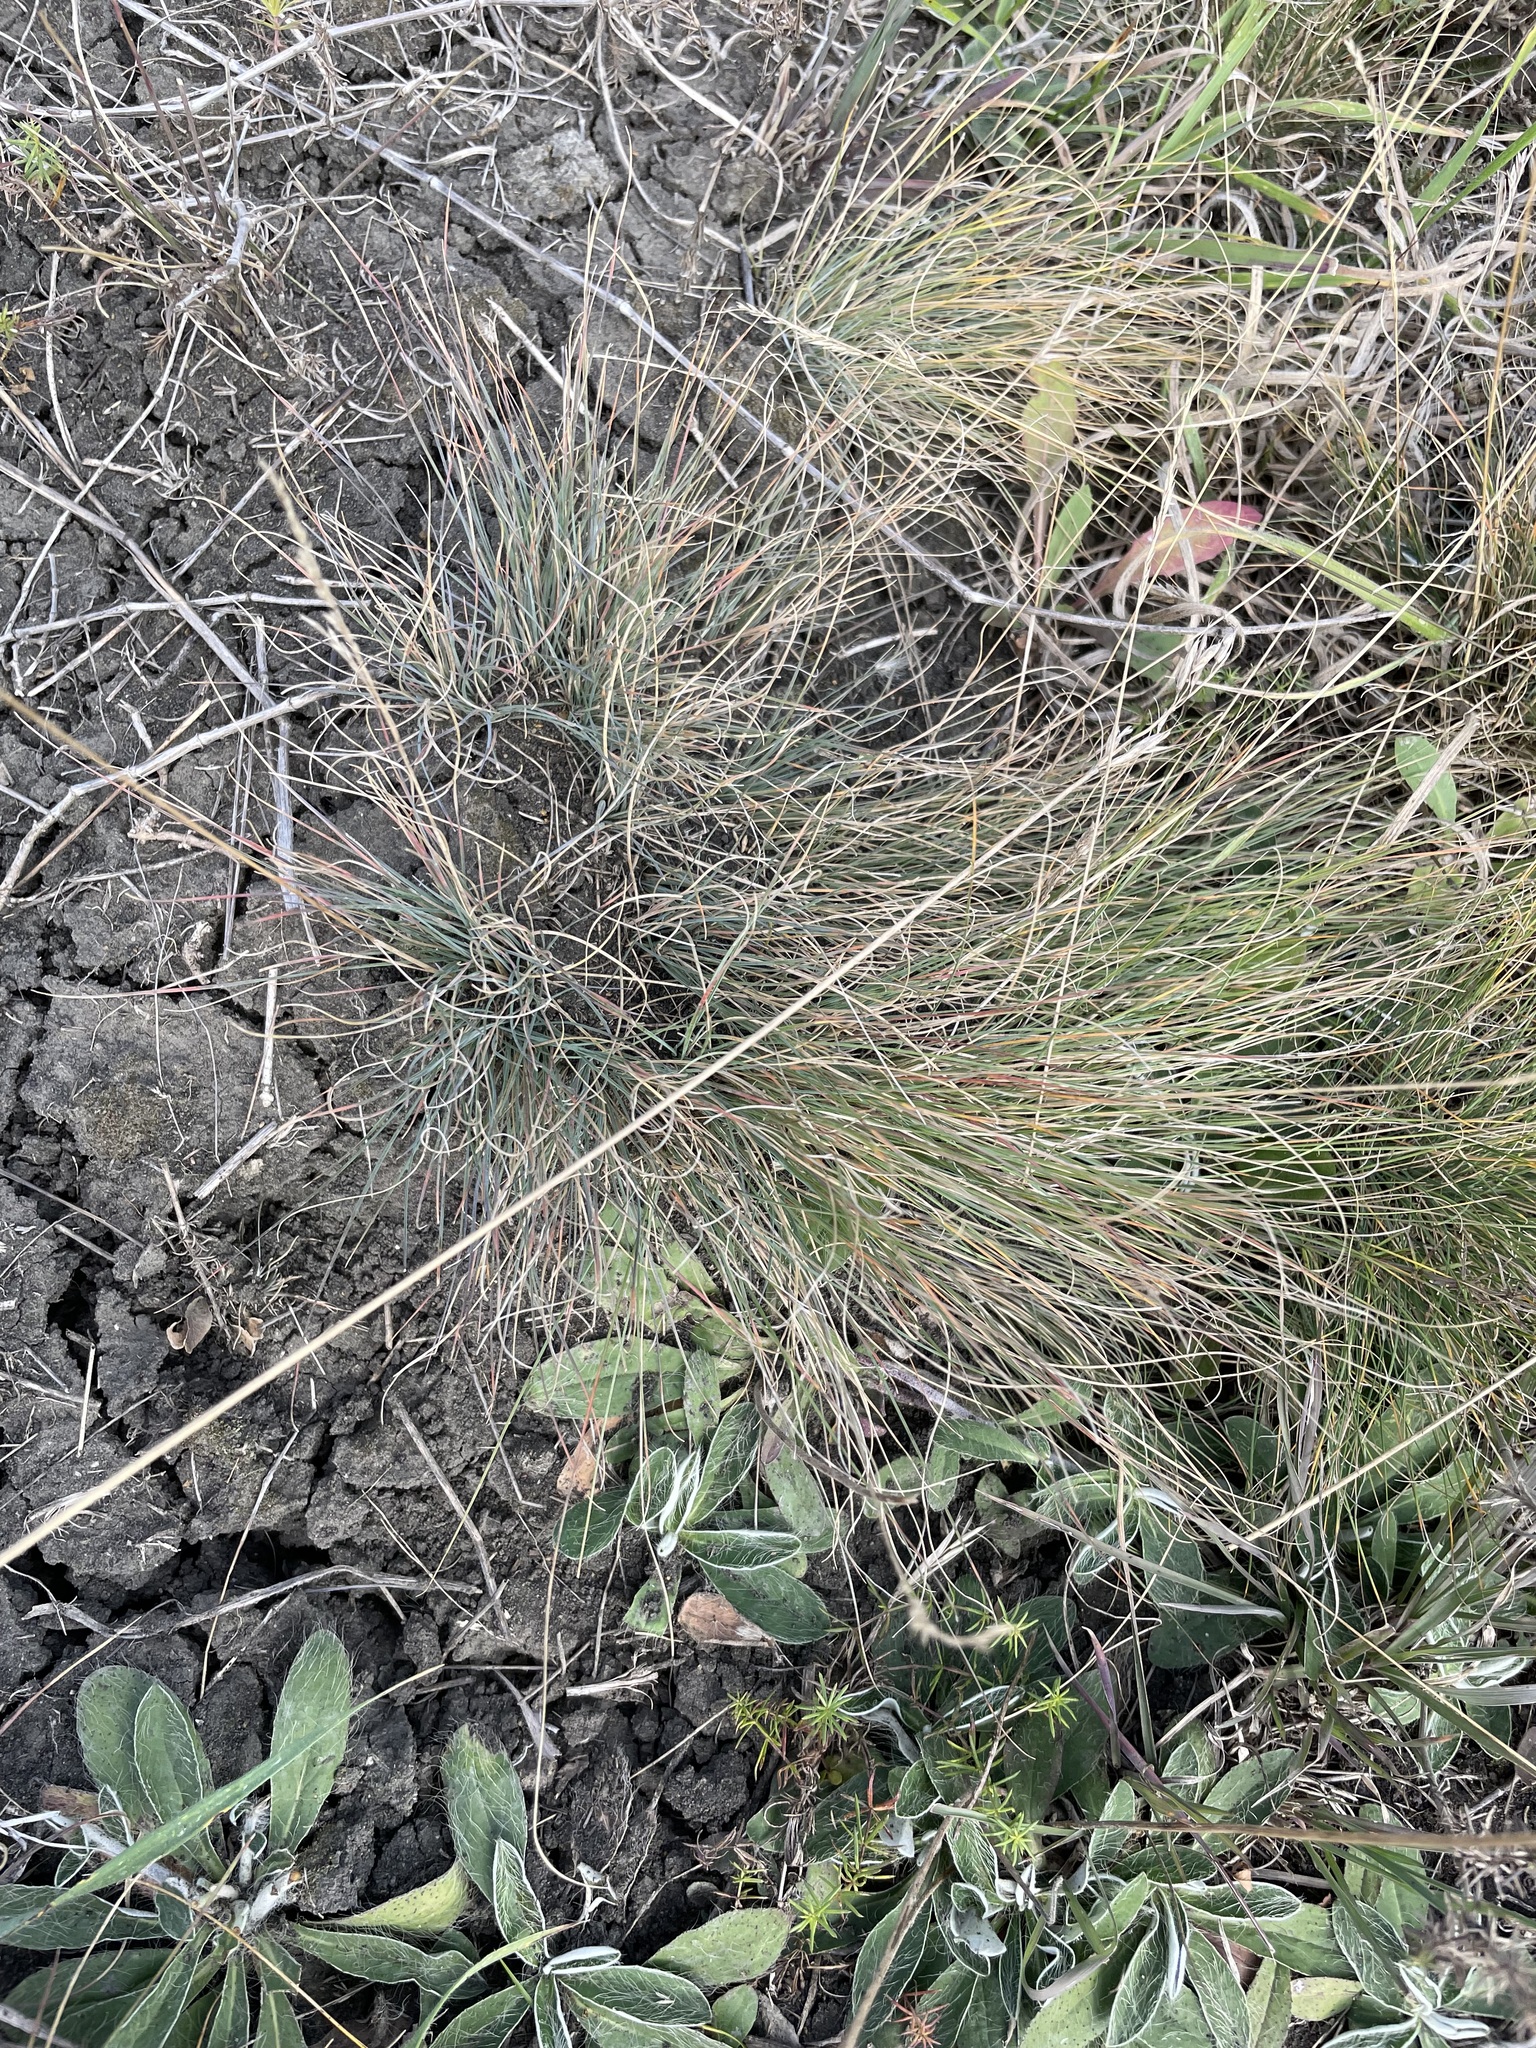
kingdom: Plantae
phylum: Tracheophyta
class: Liliopsida
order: Poales
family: Poaceae
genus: Festuca
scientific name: Festuca valesiaca
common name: Volga fescue
